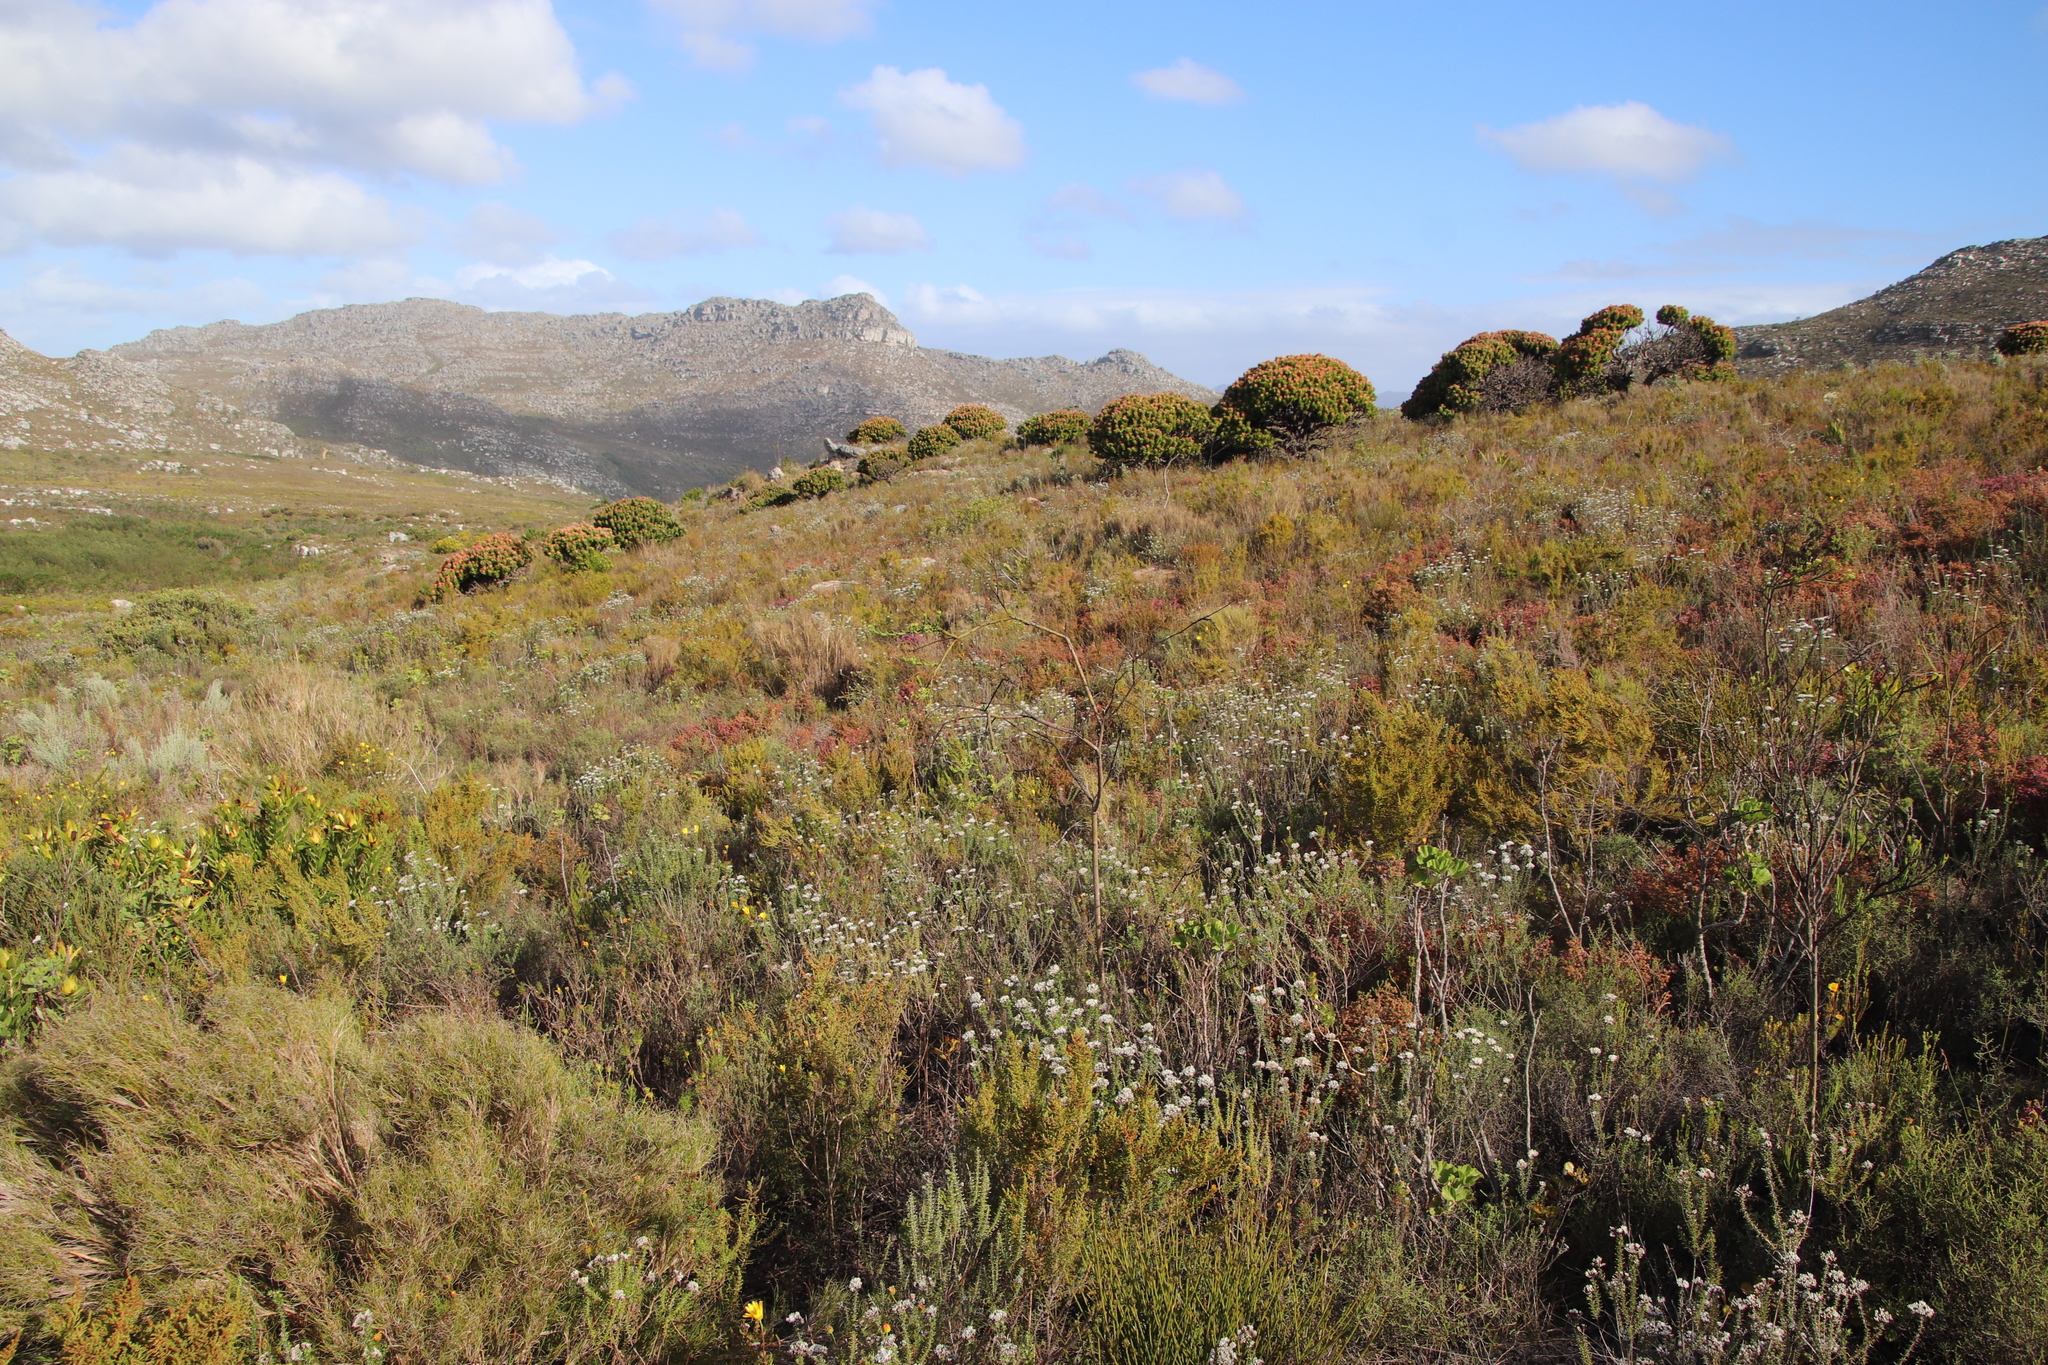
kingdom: Plantae
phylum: Tracheophyta
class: Magnoliopsida
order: Santalales
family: Thesiaceae
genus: Thesium
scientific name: Thesium strictum
